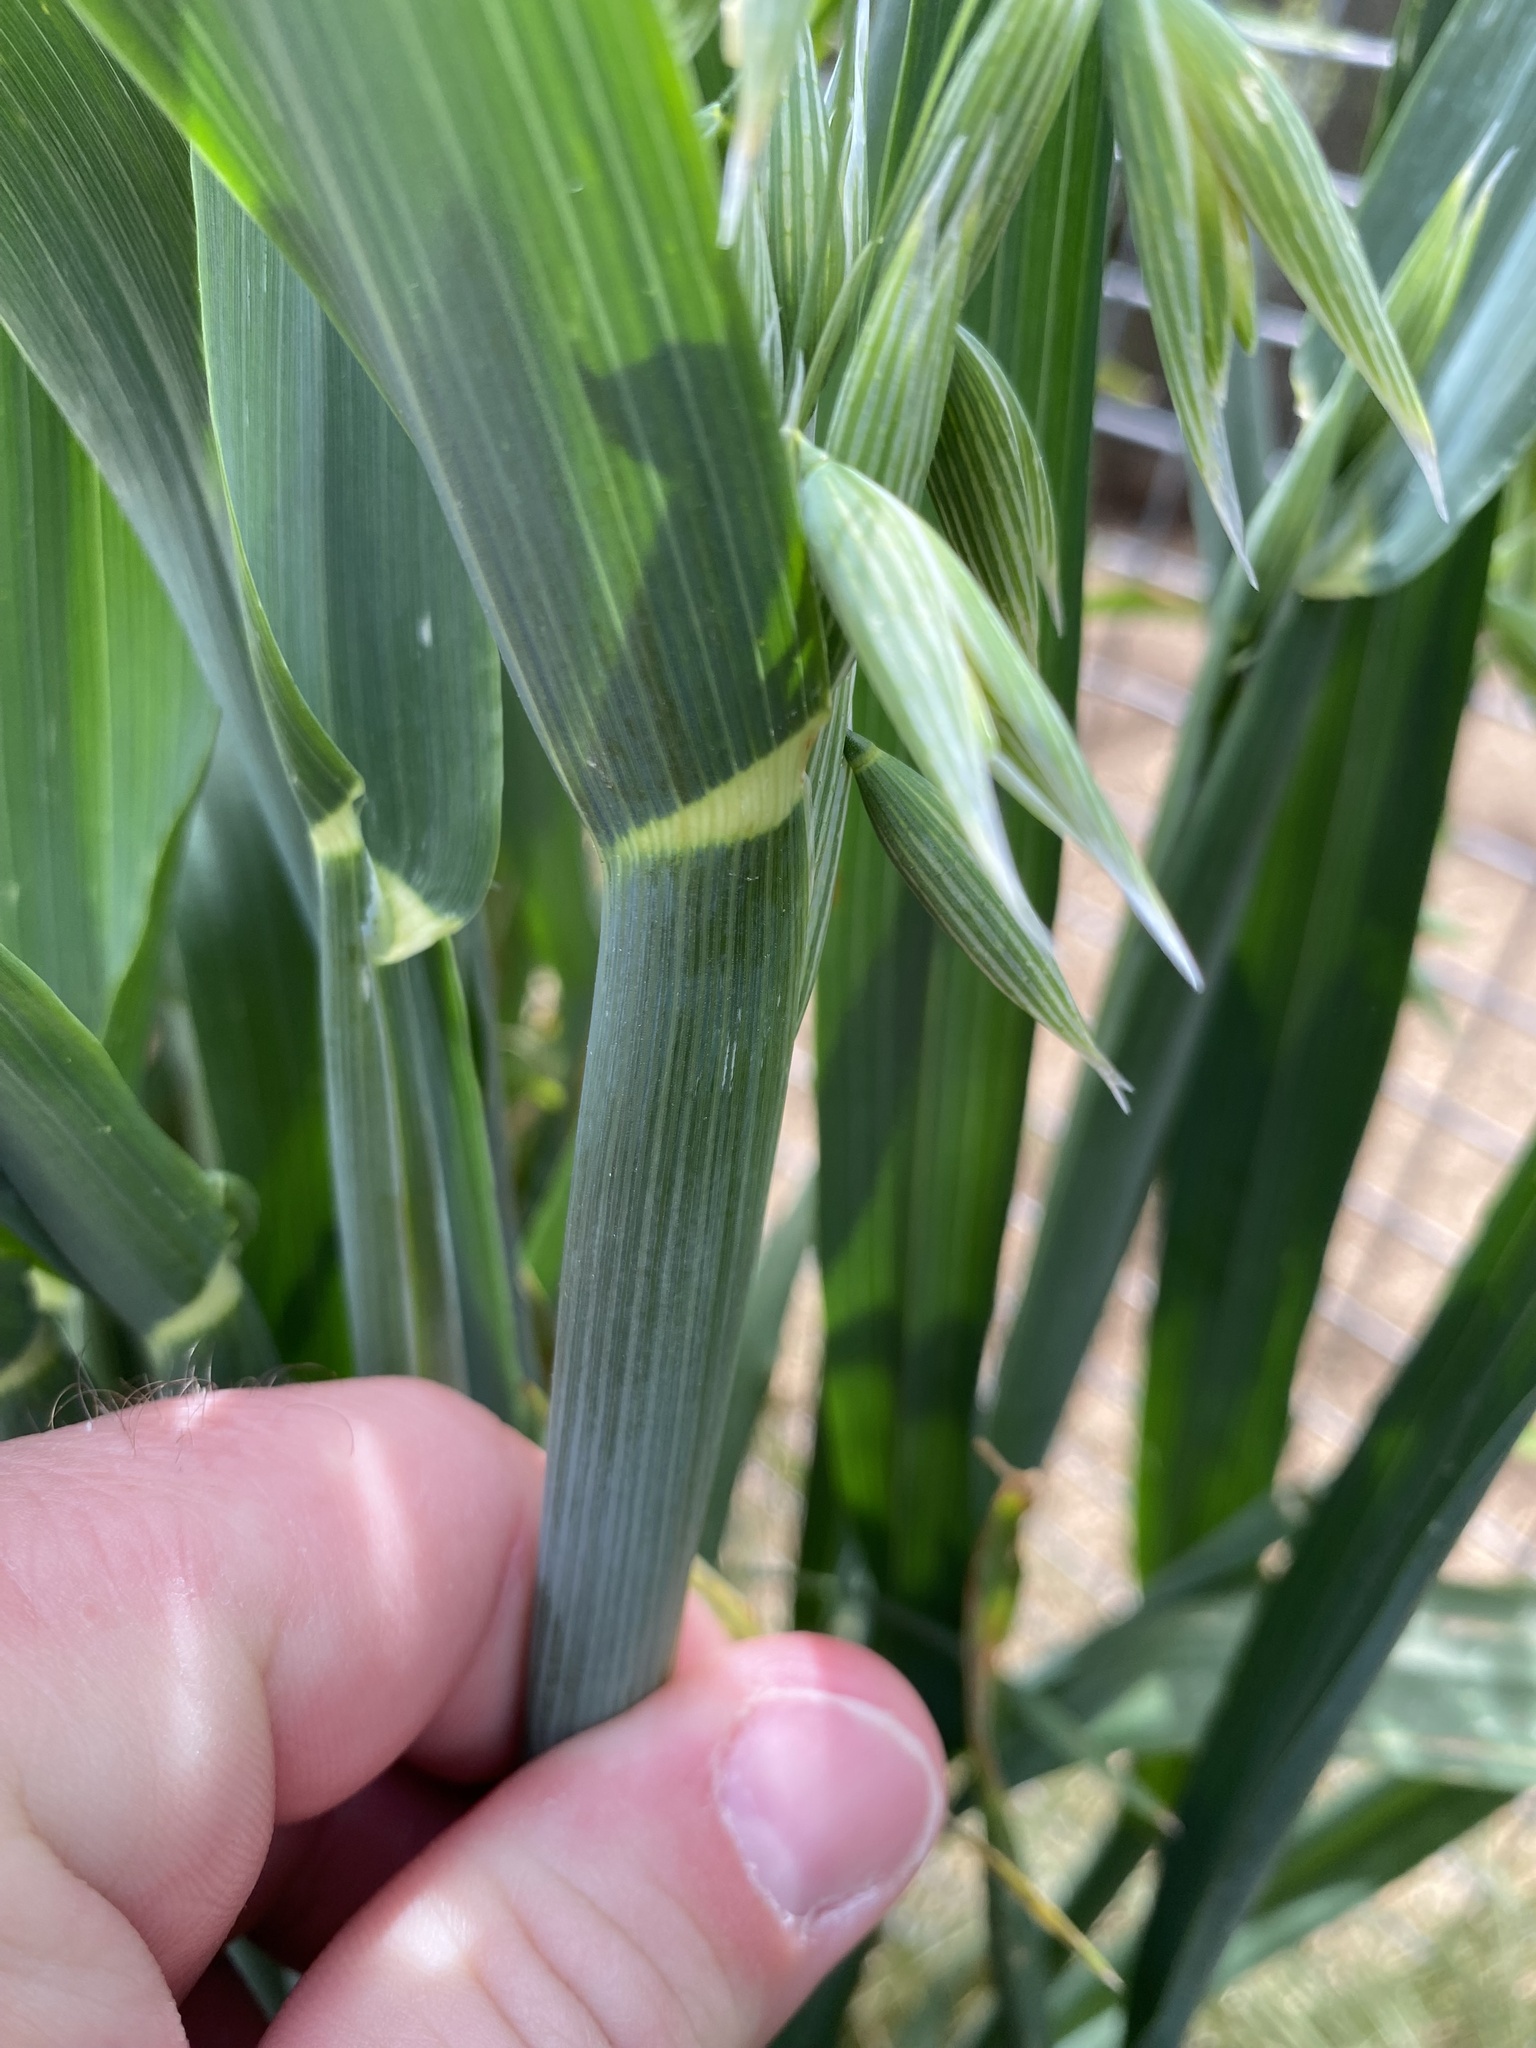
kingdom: Plantae
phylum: Tracheophyta
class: Liliopsida
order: Poales
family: Poaceae
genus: Avena
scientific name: Avena sativa
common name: Oat
